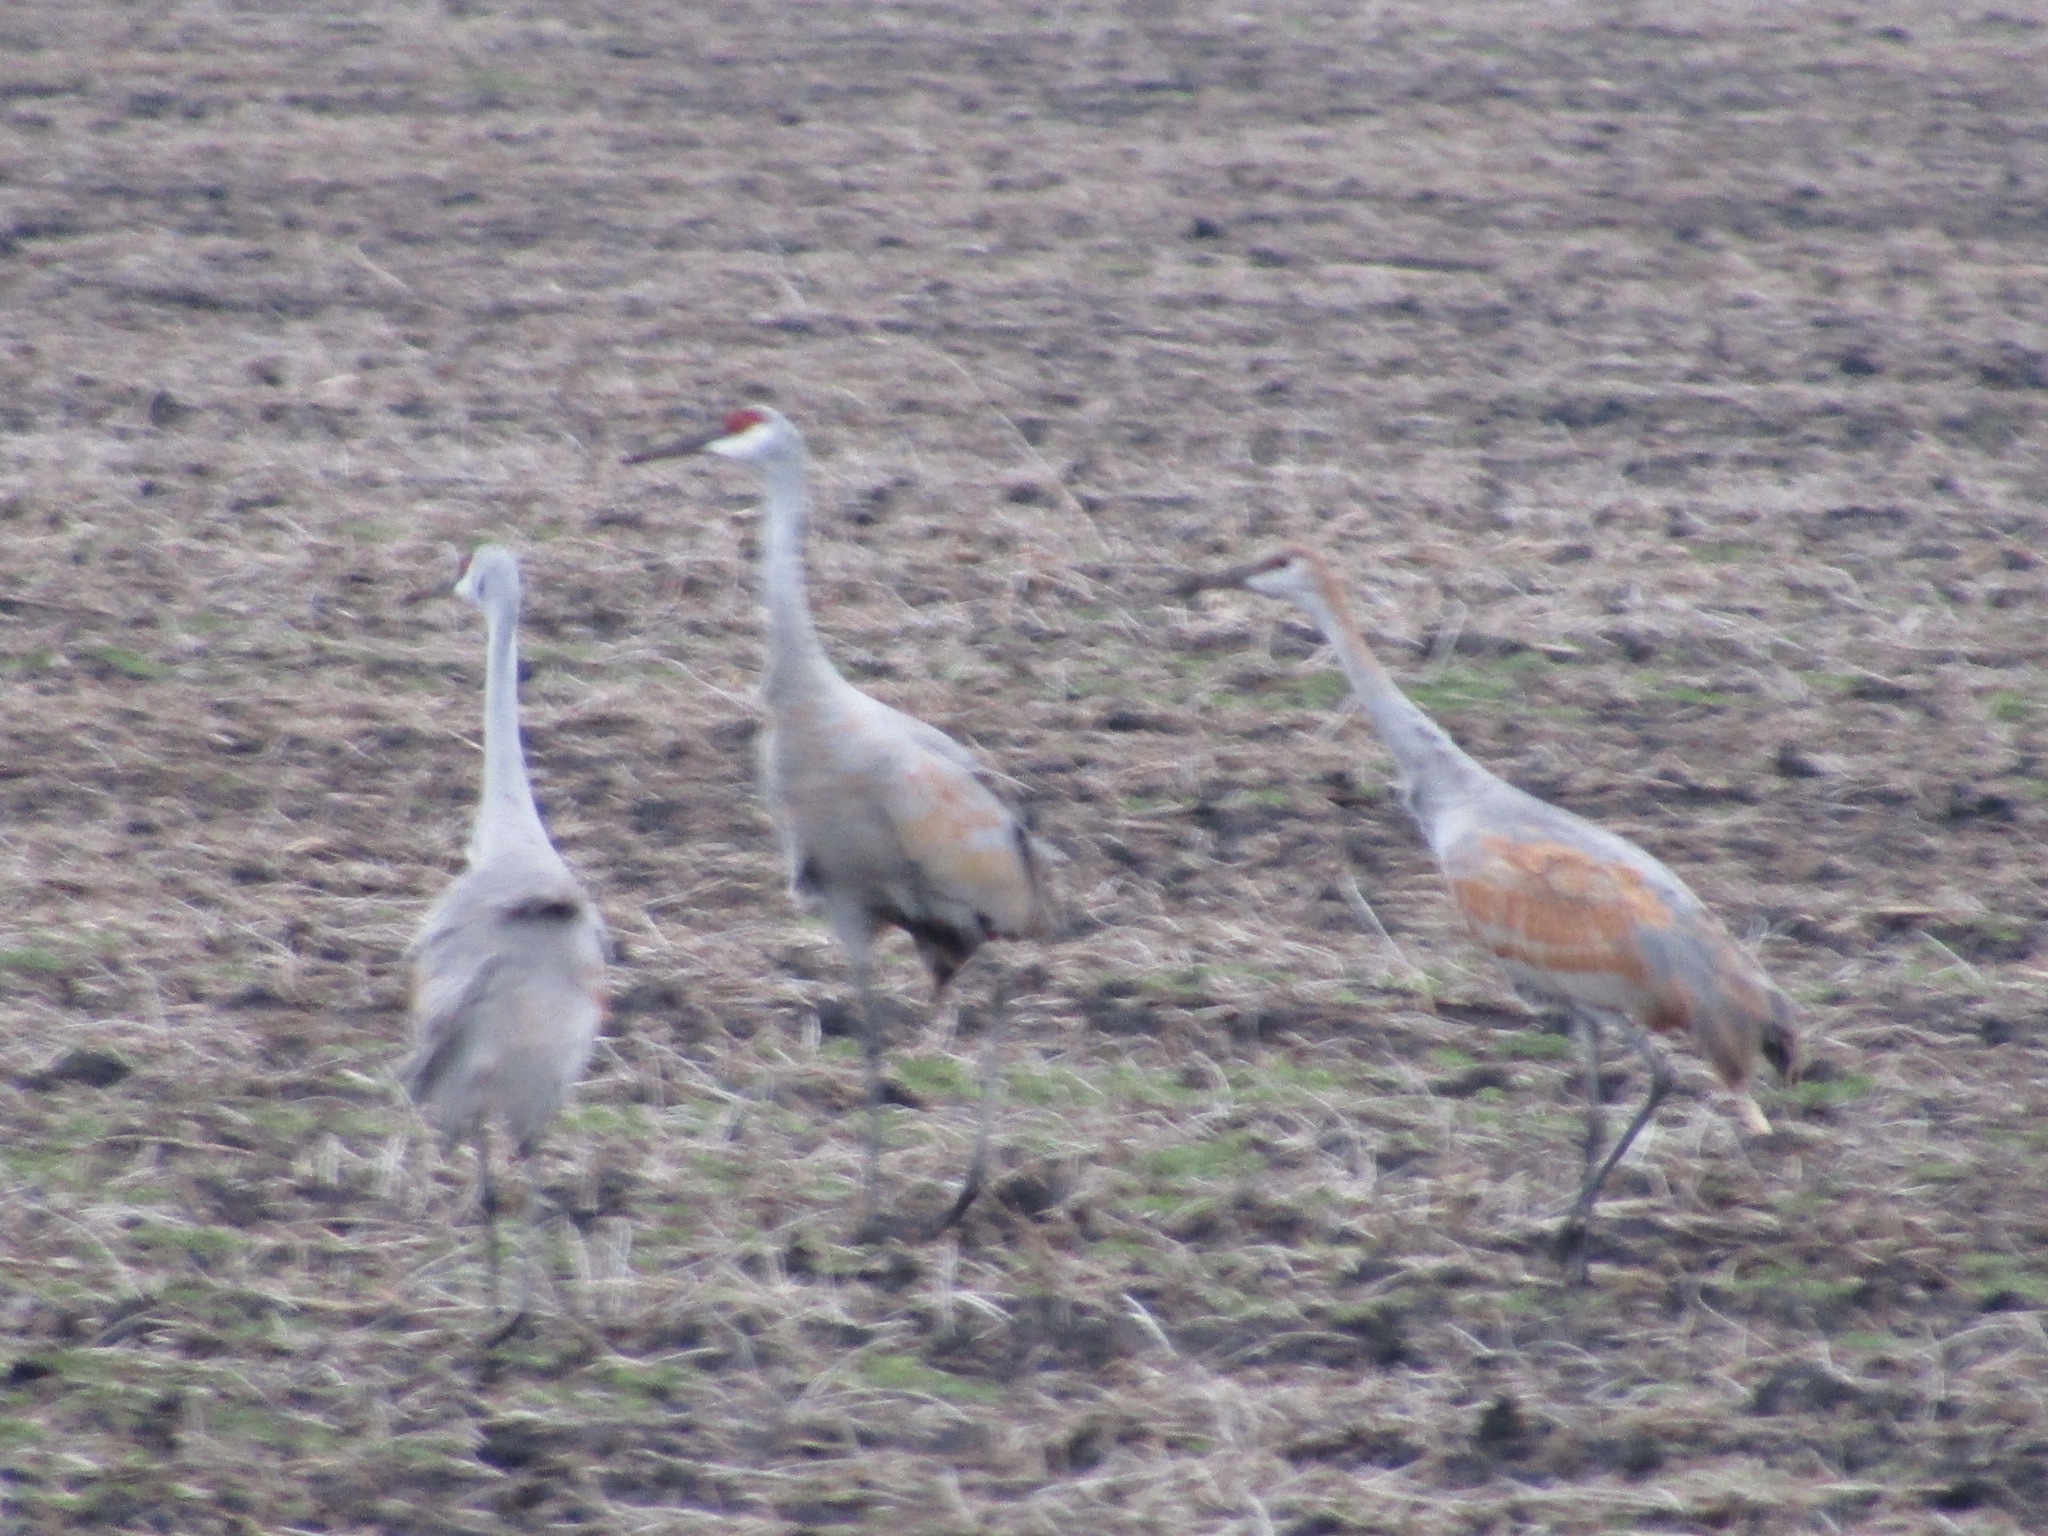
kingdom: Animalia
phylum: Chordata
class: Aves
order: Gruiformes
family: Gruidae
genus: Grus
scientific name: Grus canadensis
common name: Sandhill crane
